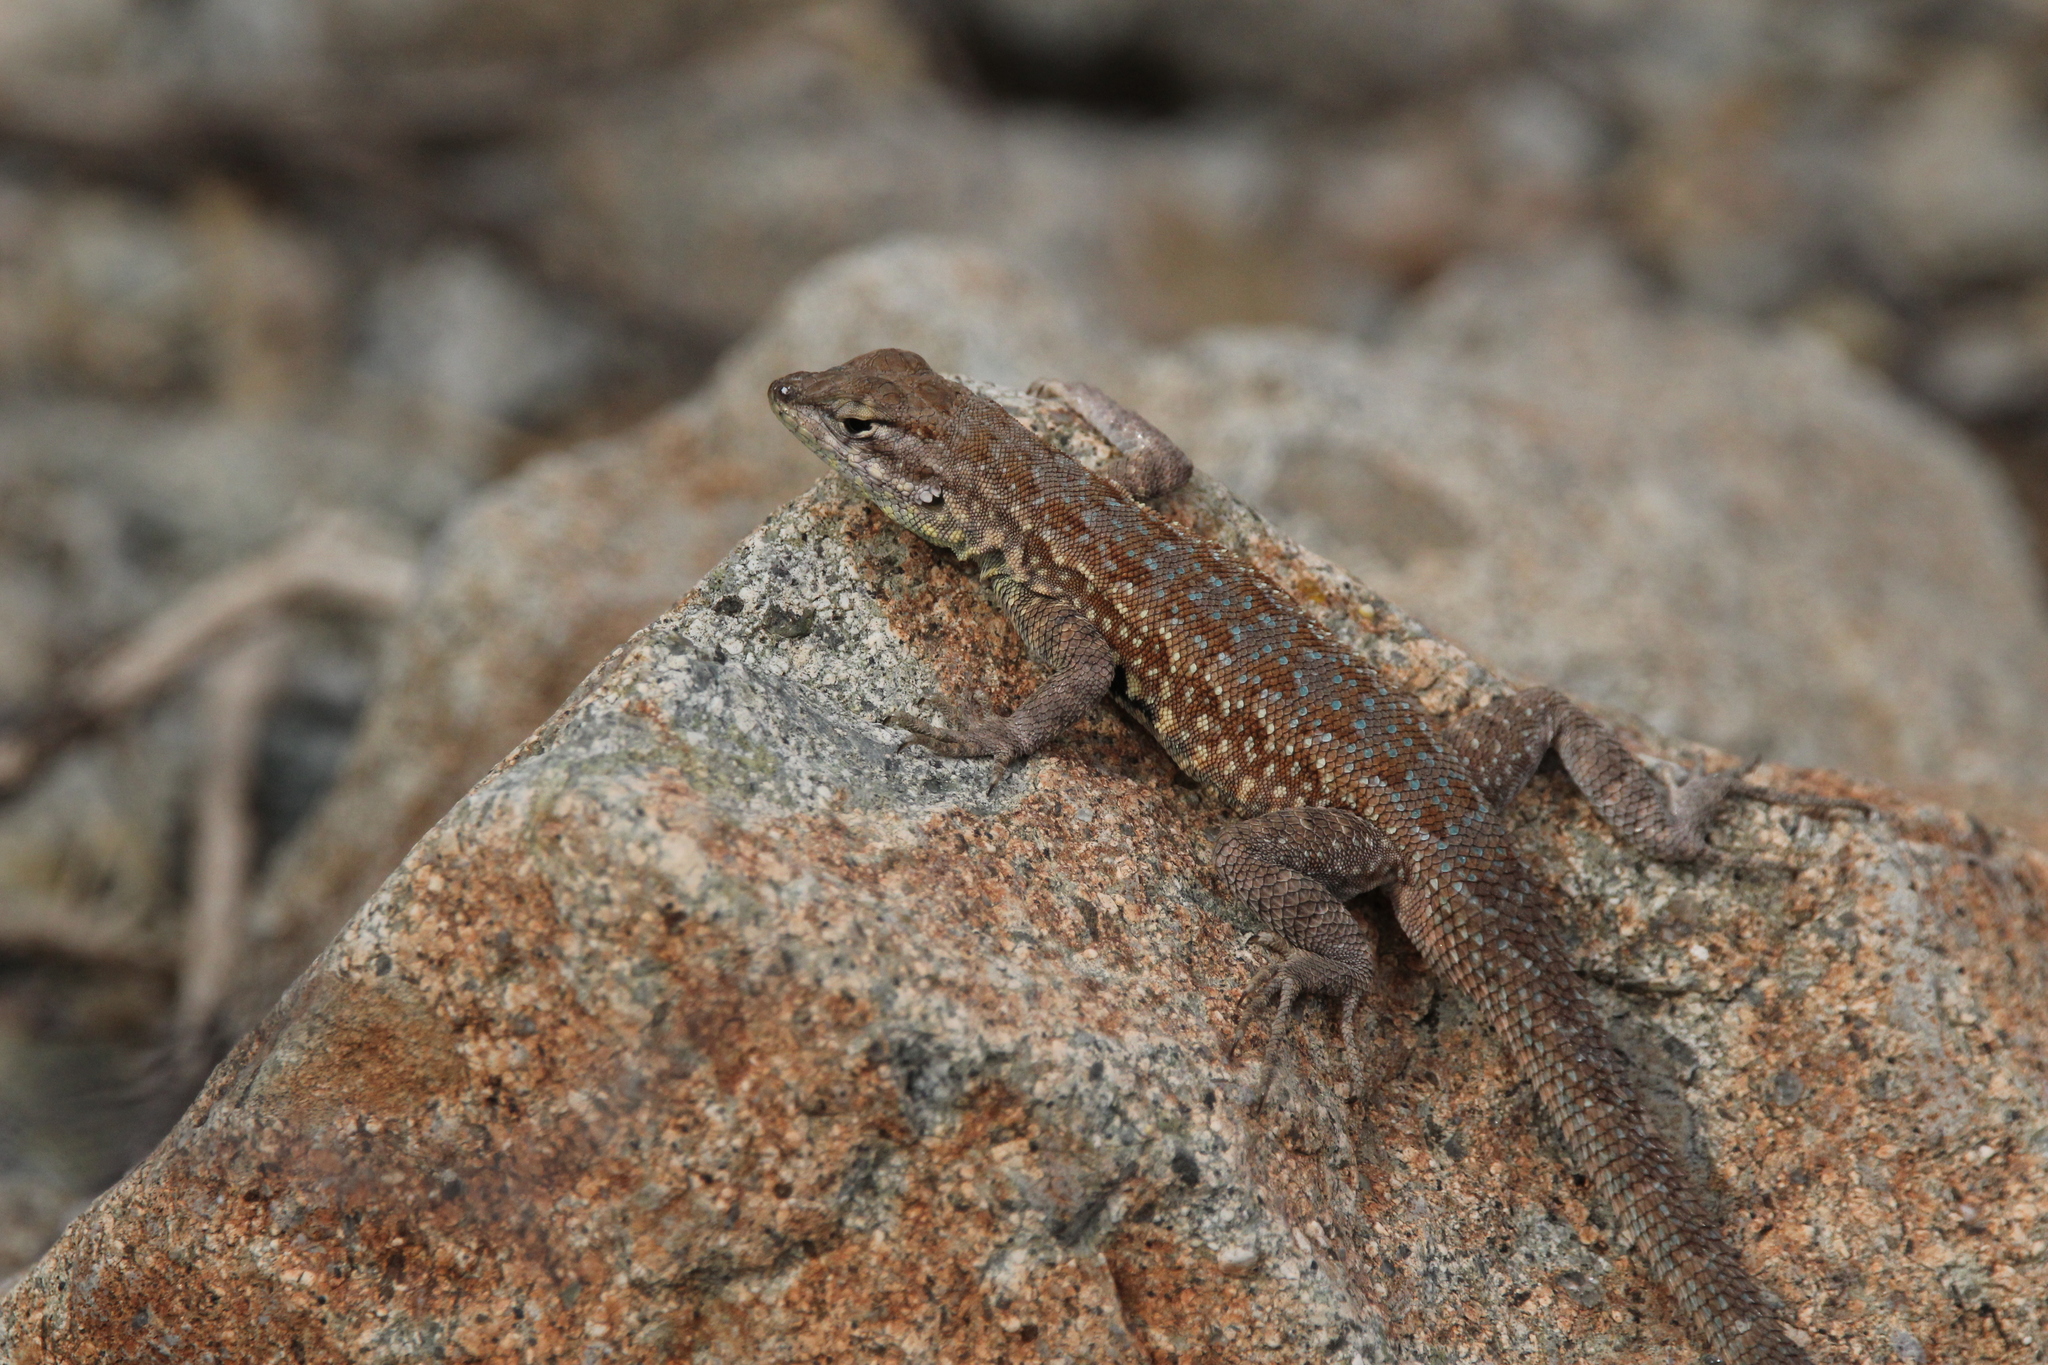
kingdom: Animalia
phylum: Chordata
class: Squamata
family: Phrynosomatidae
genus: Uta
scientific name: Uta stansburiana
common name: Side-blotched lizard
